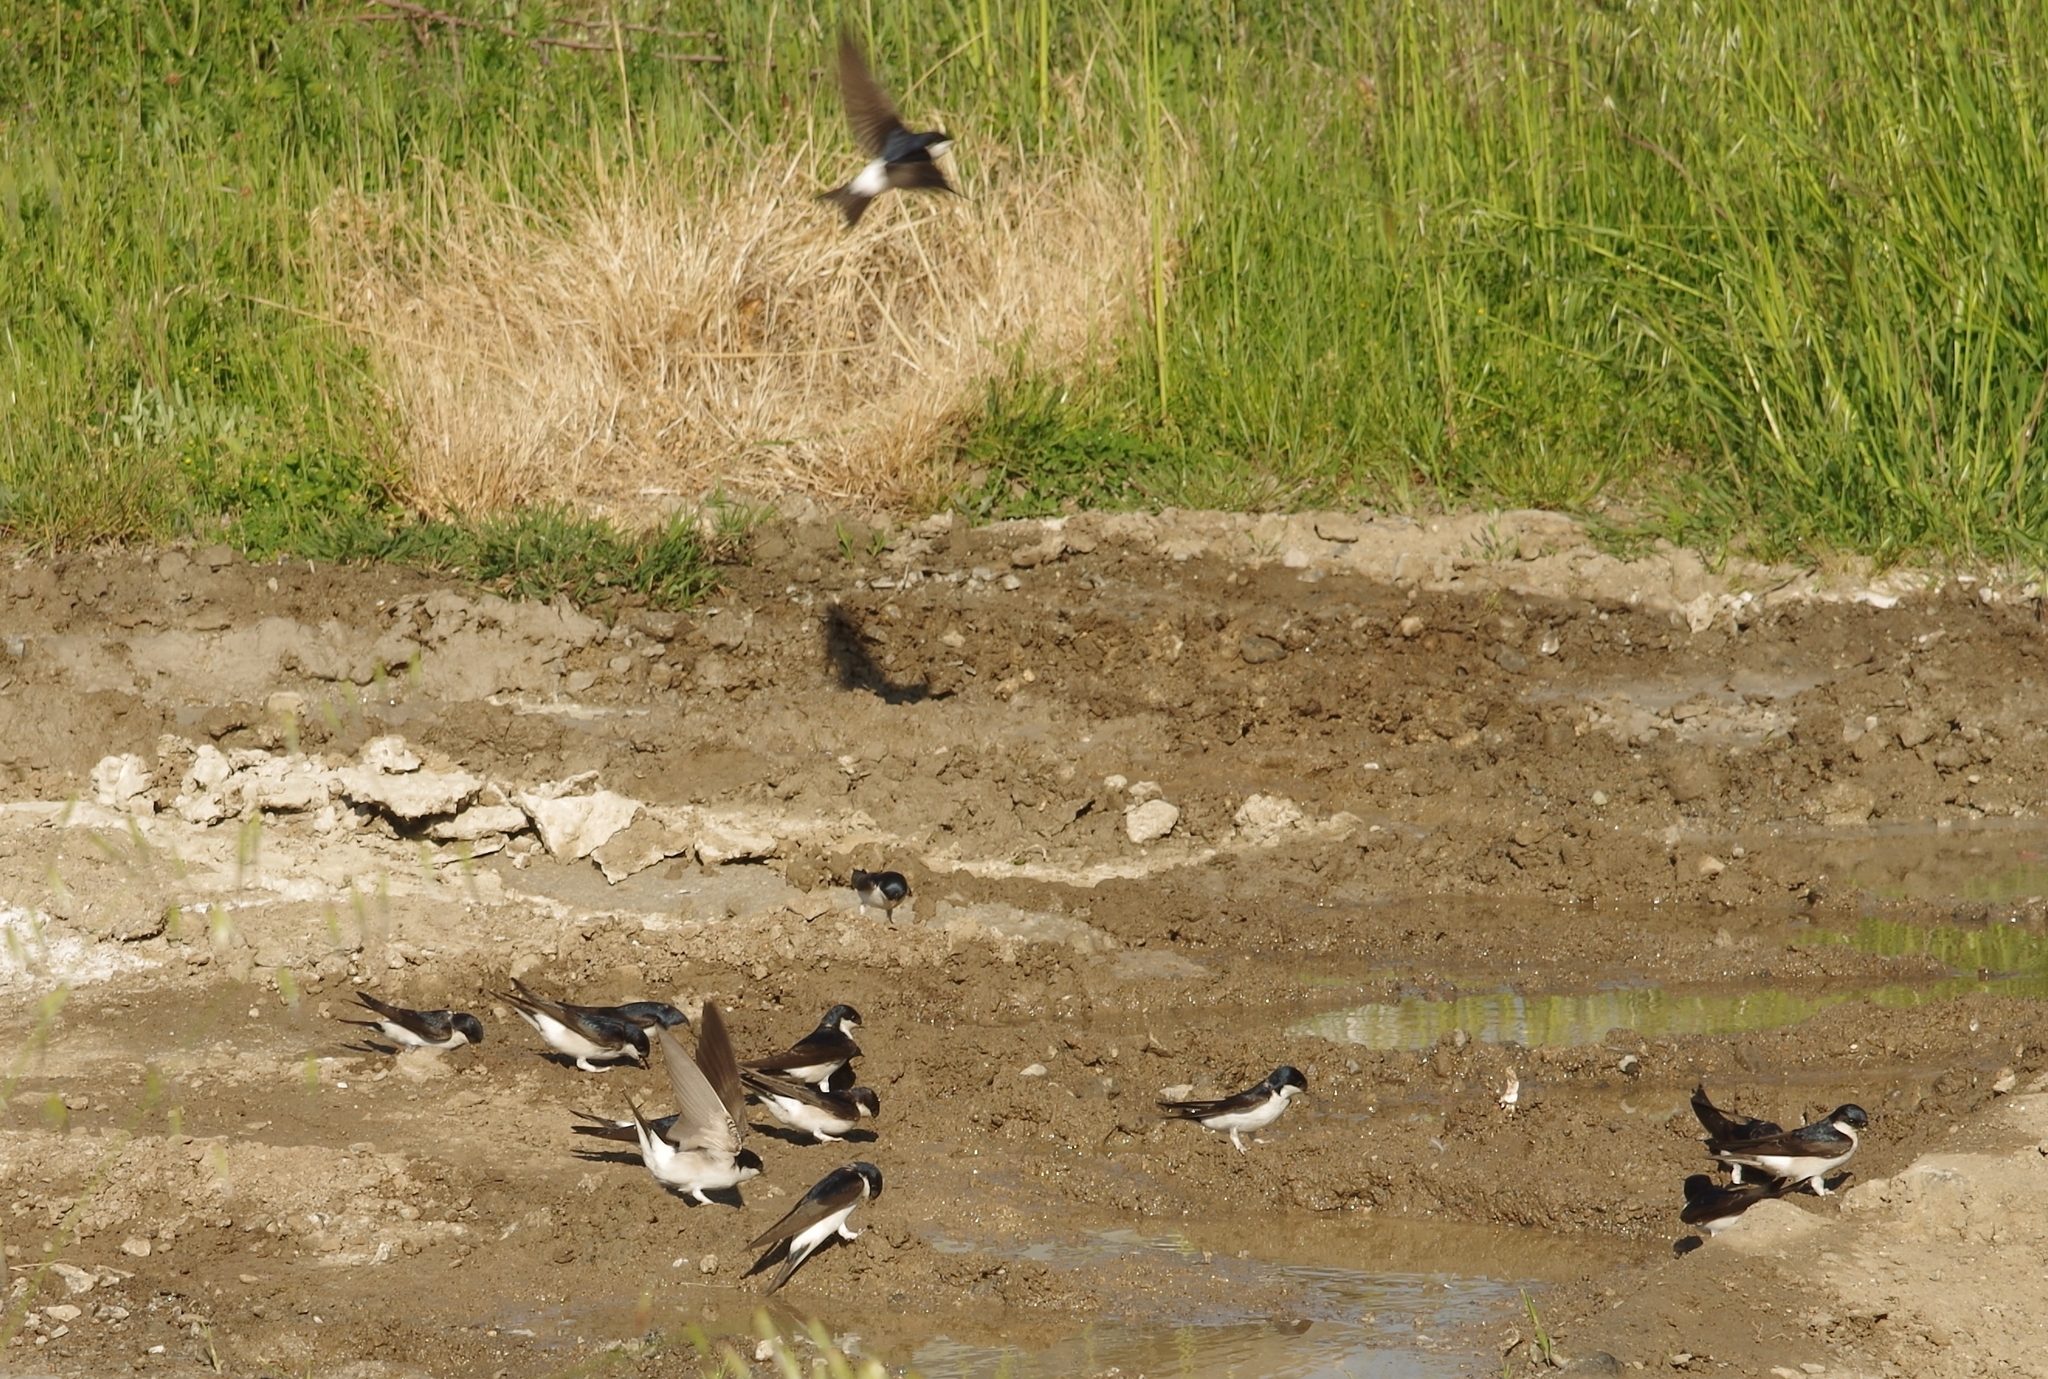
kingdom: Animalia
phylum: Chordata
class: Aves
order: Passeriformes
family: Hirundinidae
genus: Delichon
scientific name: Delichon urbicum
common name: Common house martin
